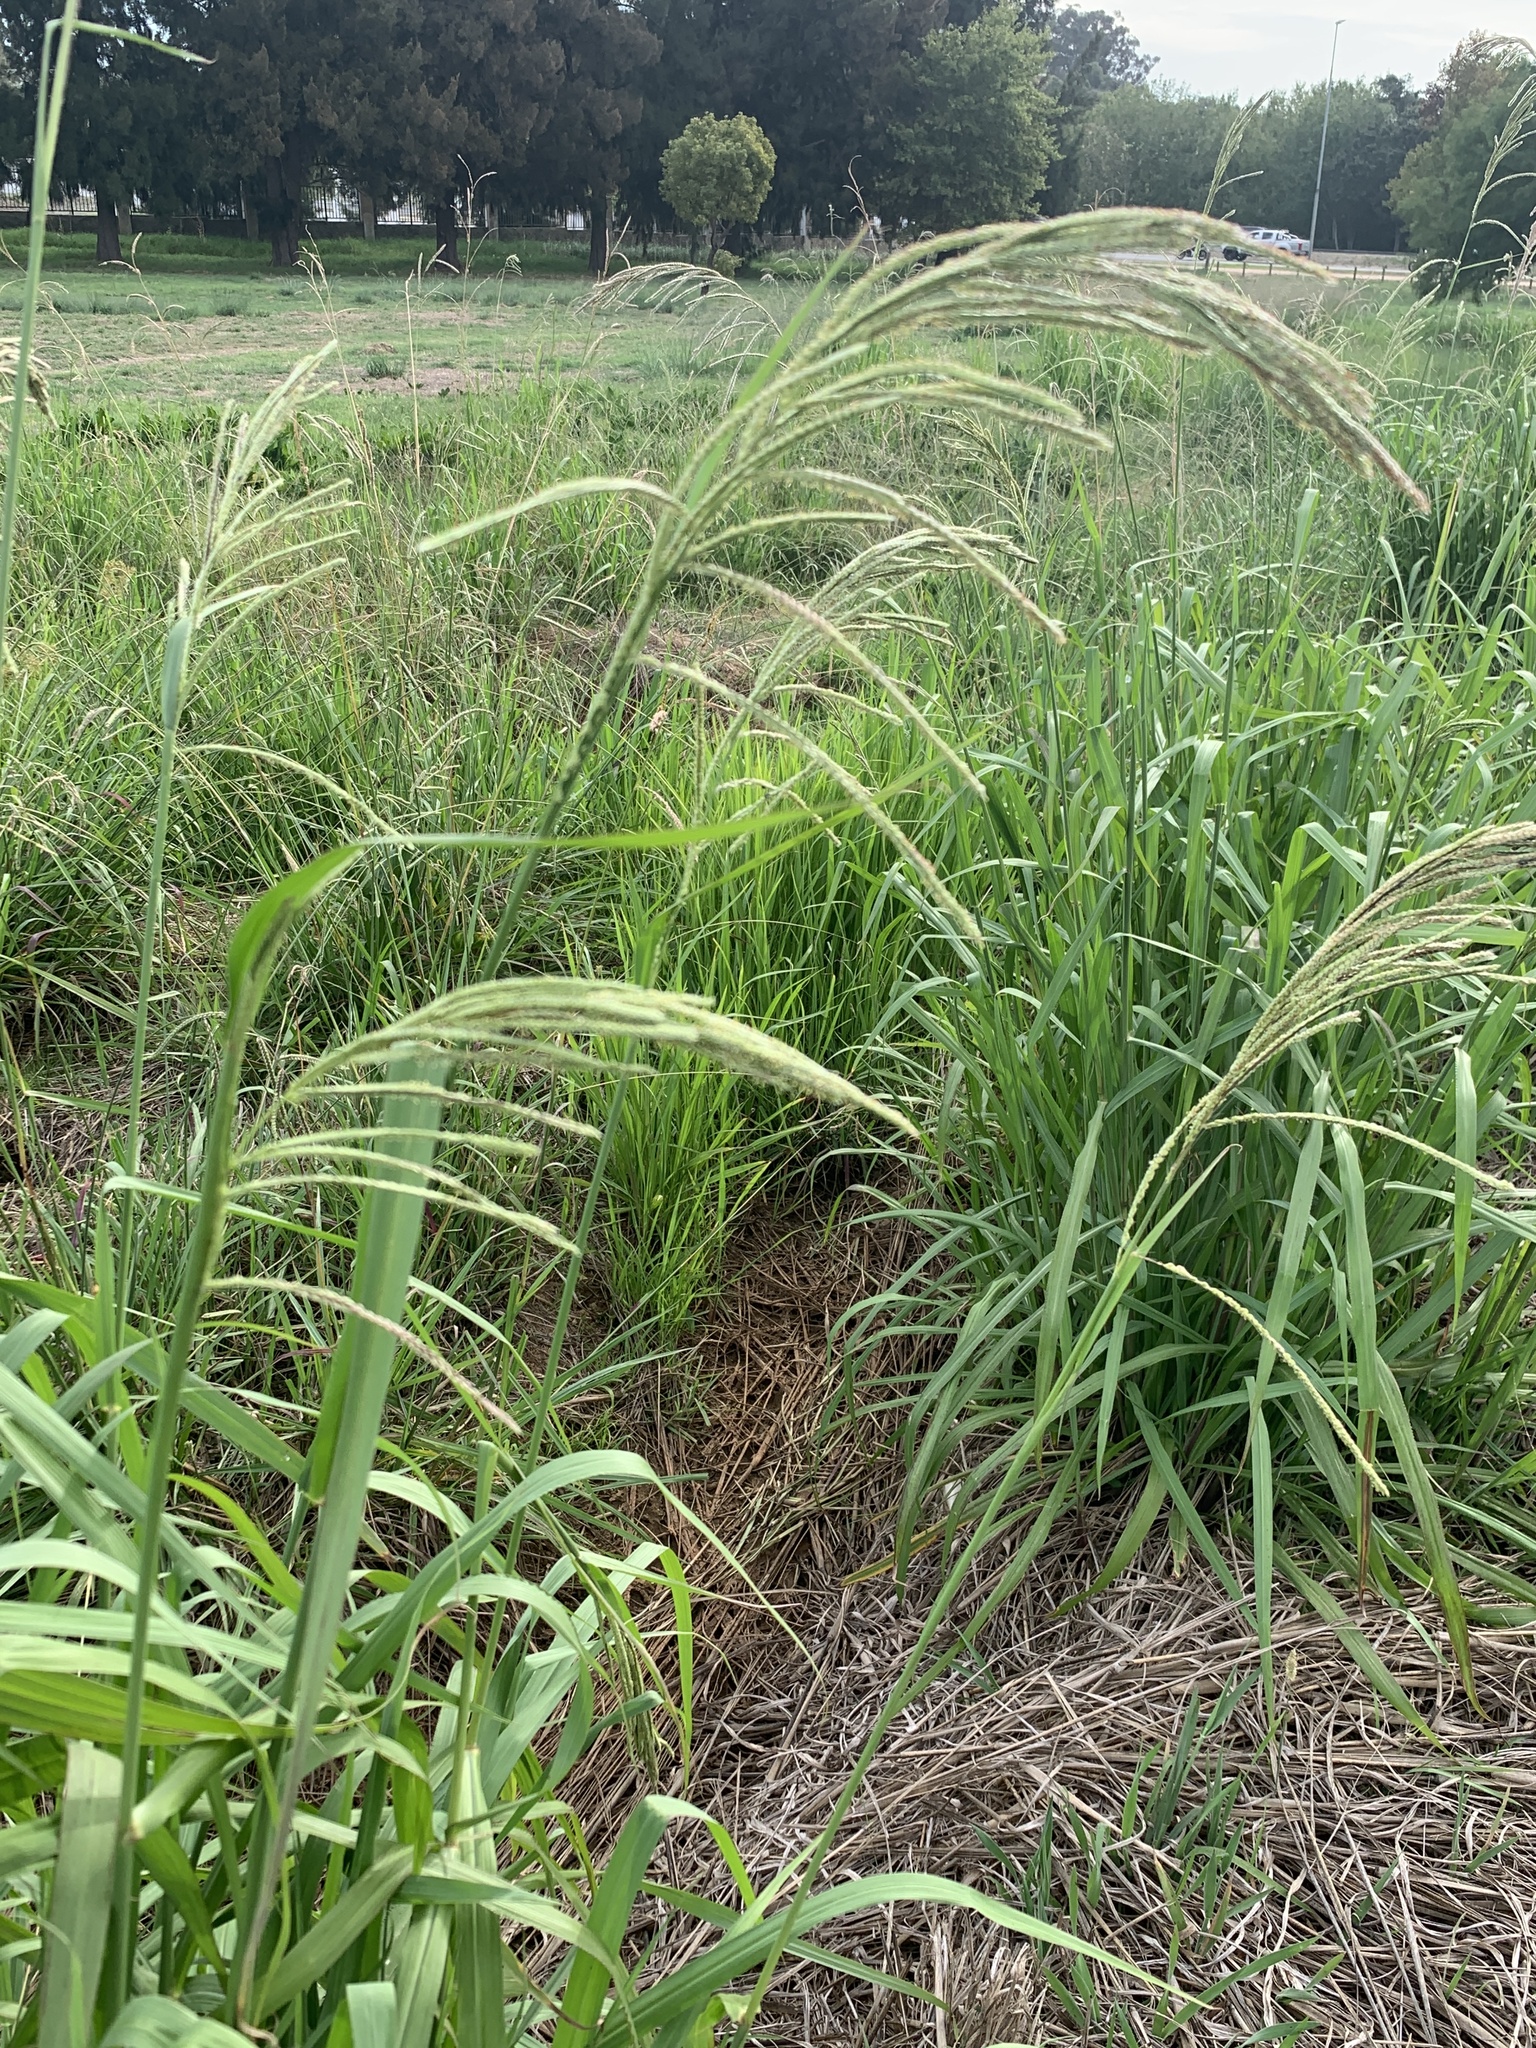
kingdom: Plantae
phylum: Tracheophyta
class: Liliopsida
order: Poales
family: Poaceae
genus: Paspalum
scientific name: Paspalum urvillei
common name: Vasey's grass
